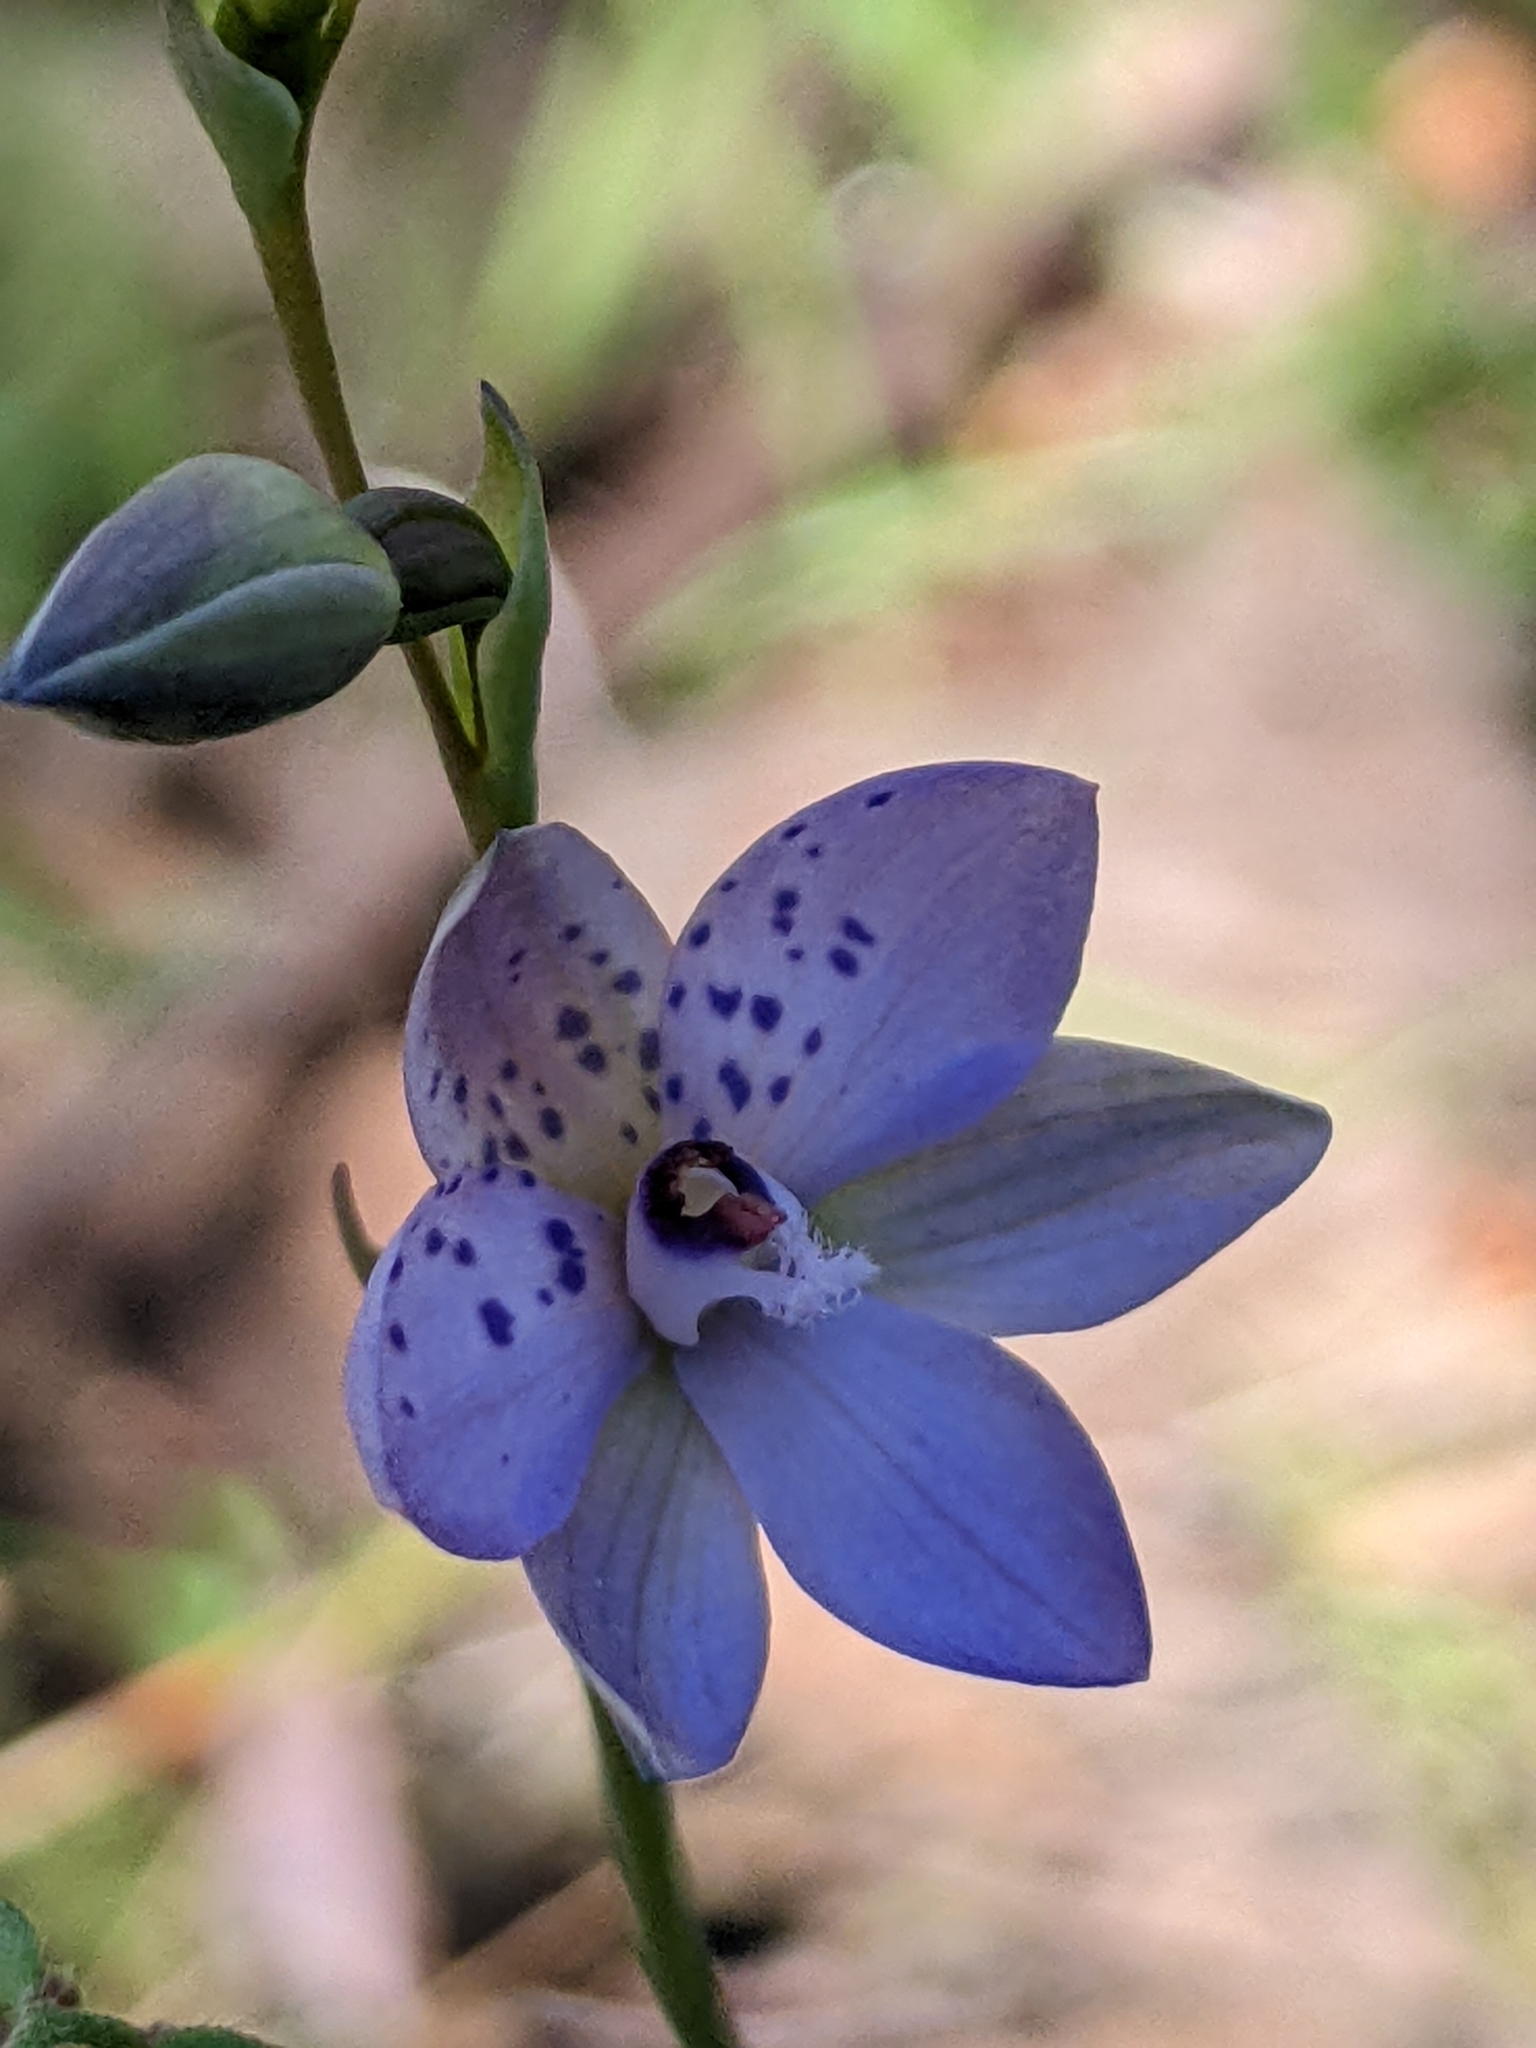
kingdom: Plantae
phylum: Tracheophyta
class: Liliopsida
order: Asparagales
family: Orchidaceae
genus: Thelymitra
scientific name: Thelymitra ixioides
